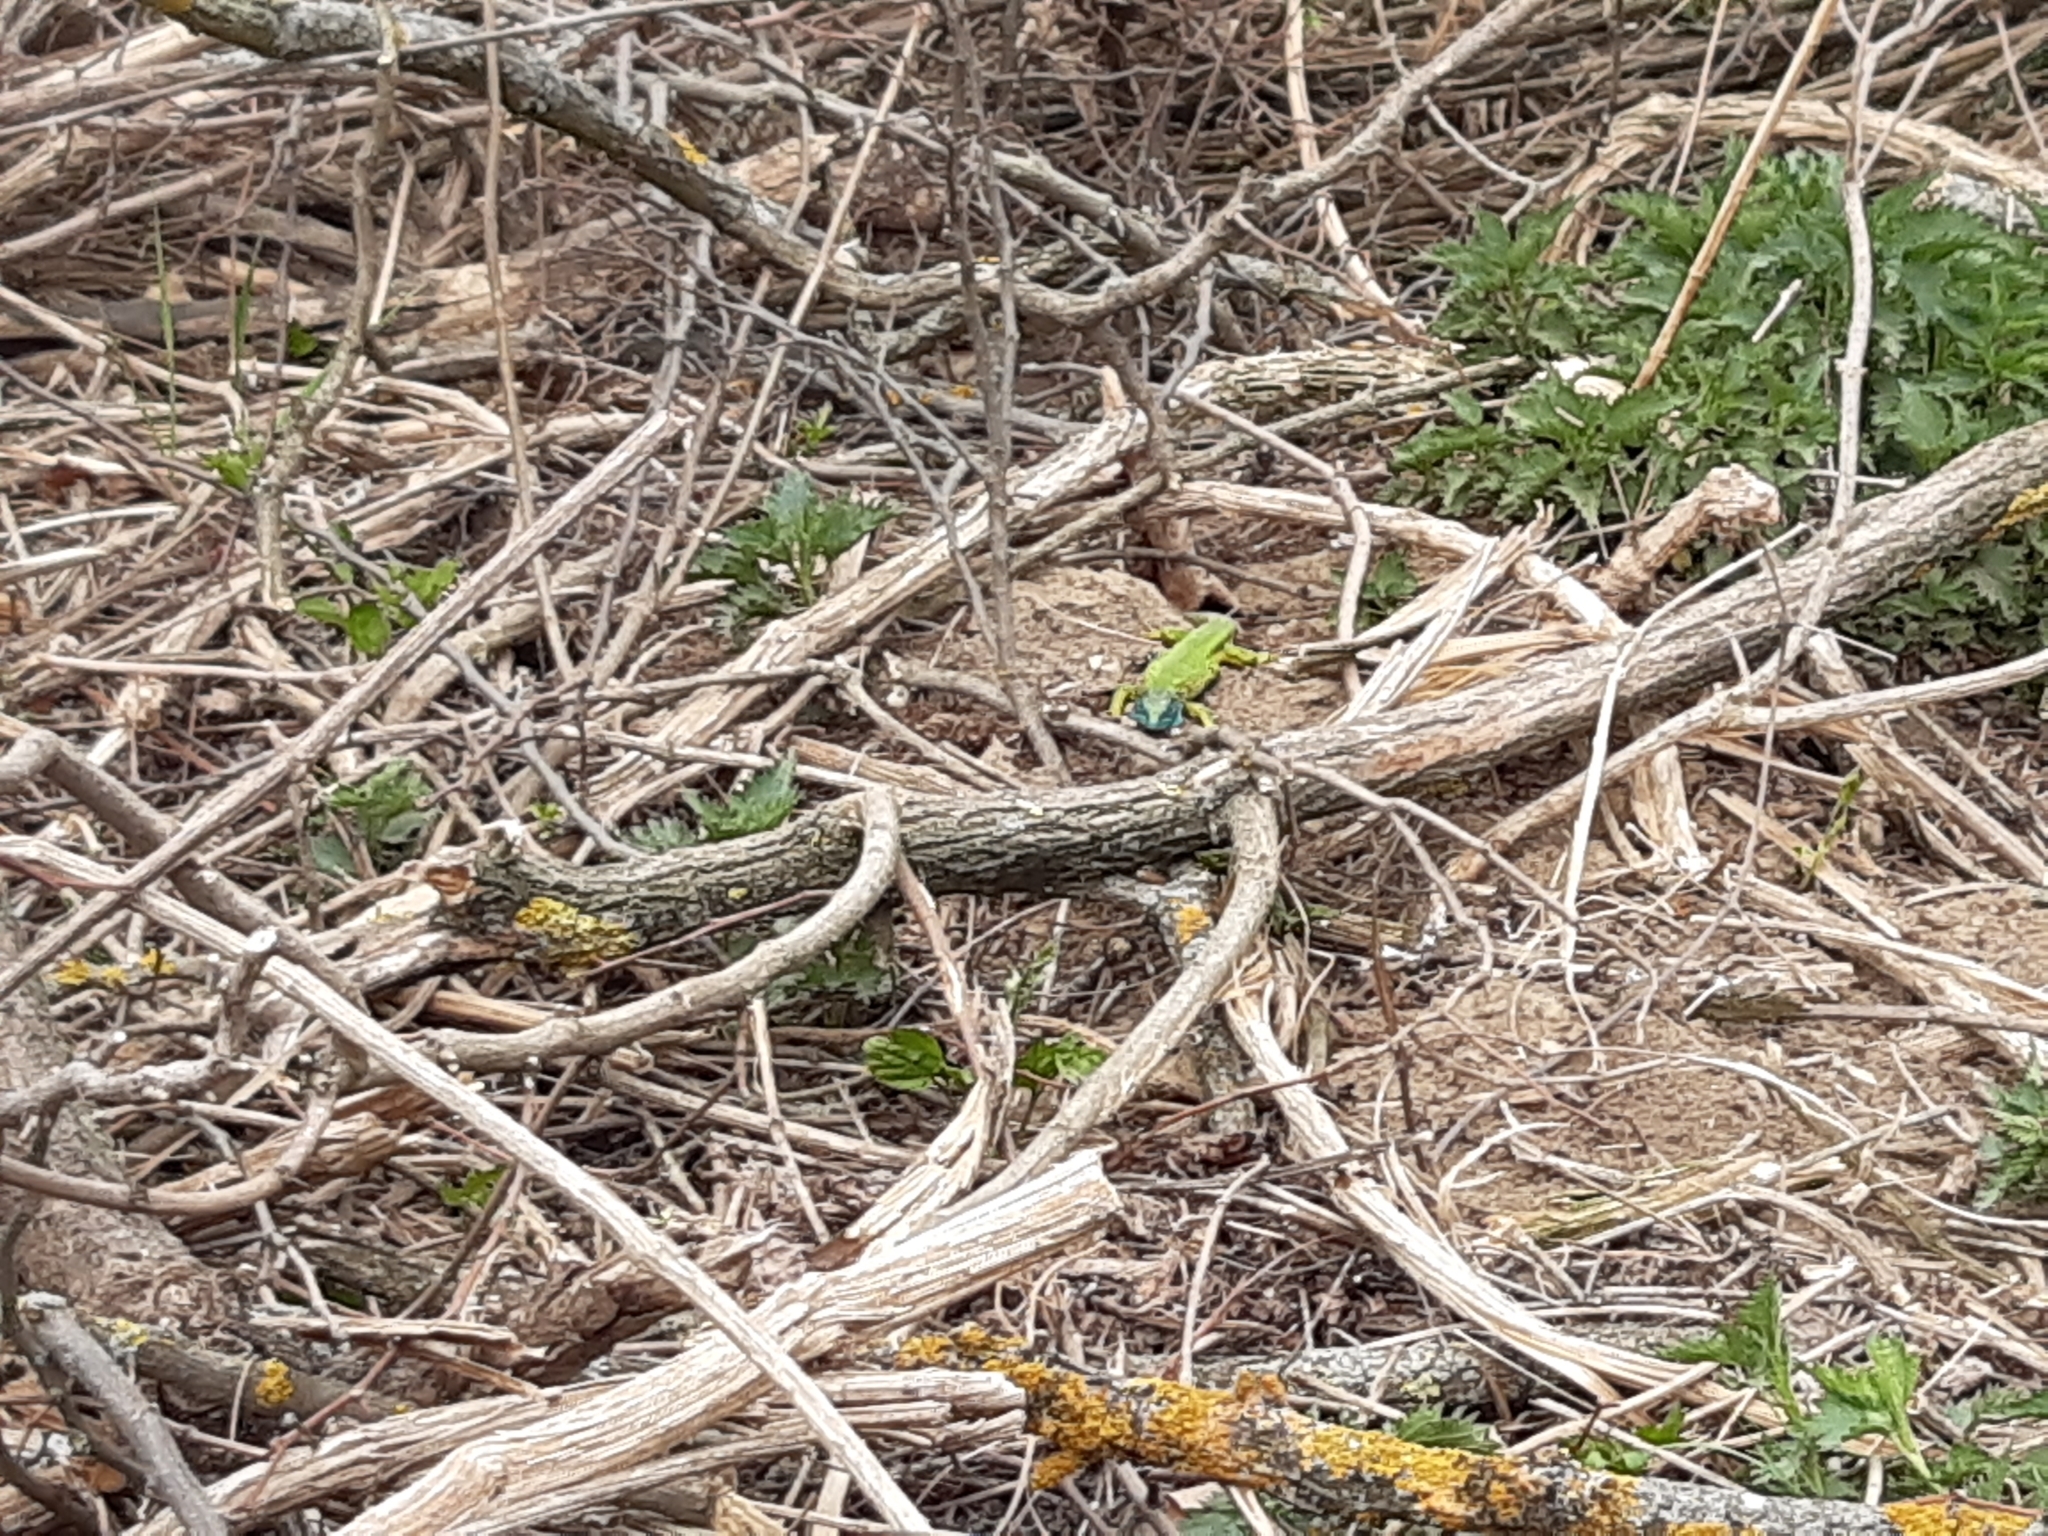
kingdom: Animalia
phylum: Chordata
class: Squamata
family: Lacertidae
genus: Lacerta
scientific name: Lacerta viridis
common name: European green lizard
